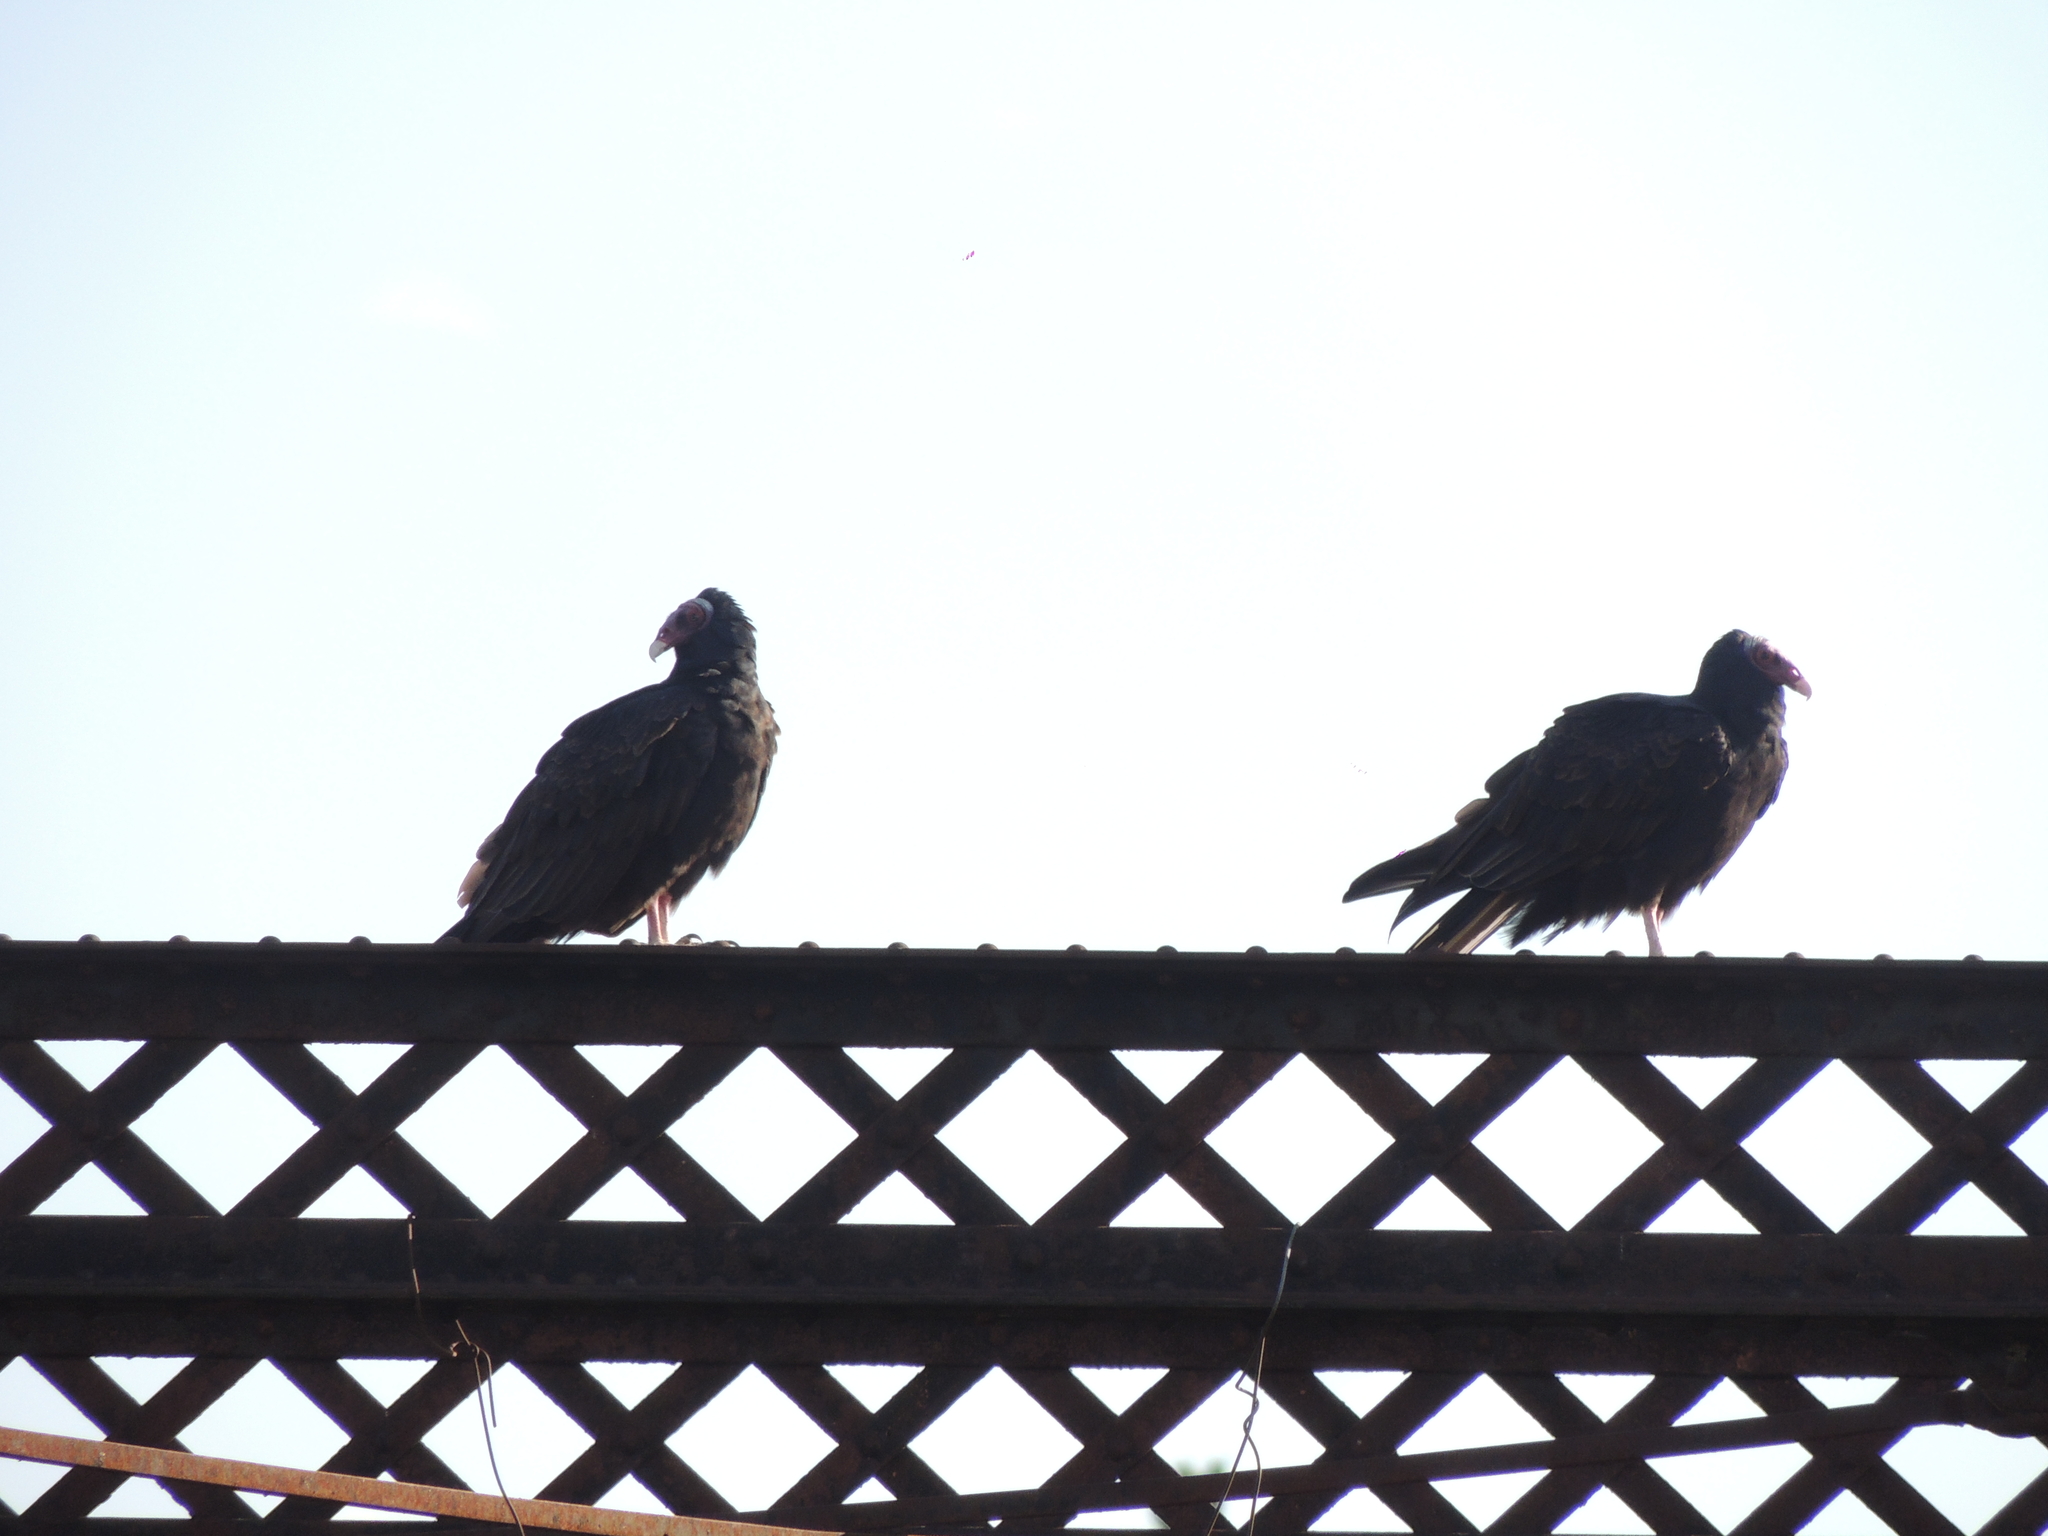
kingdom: Animalia
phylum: Chordata
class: Aves
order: Accipitriformes
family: Cathartidae
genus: Cathartes
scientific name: Cathartes aura
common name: Turkey vulture
